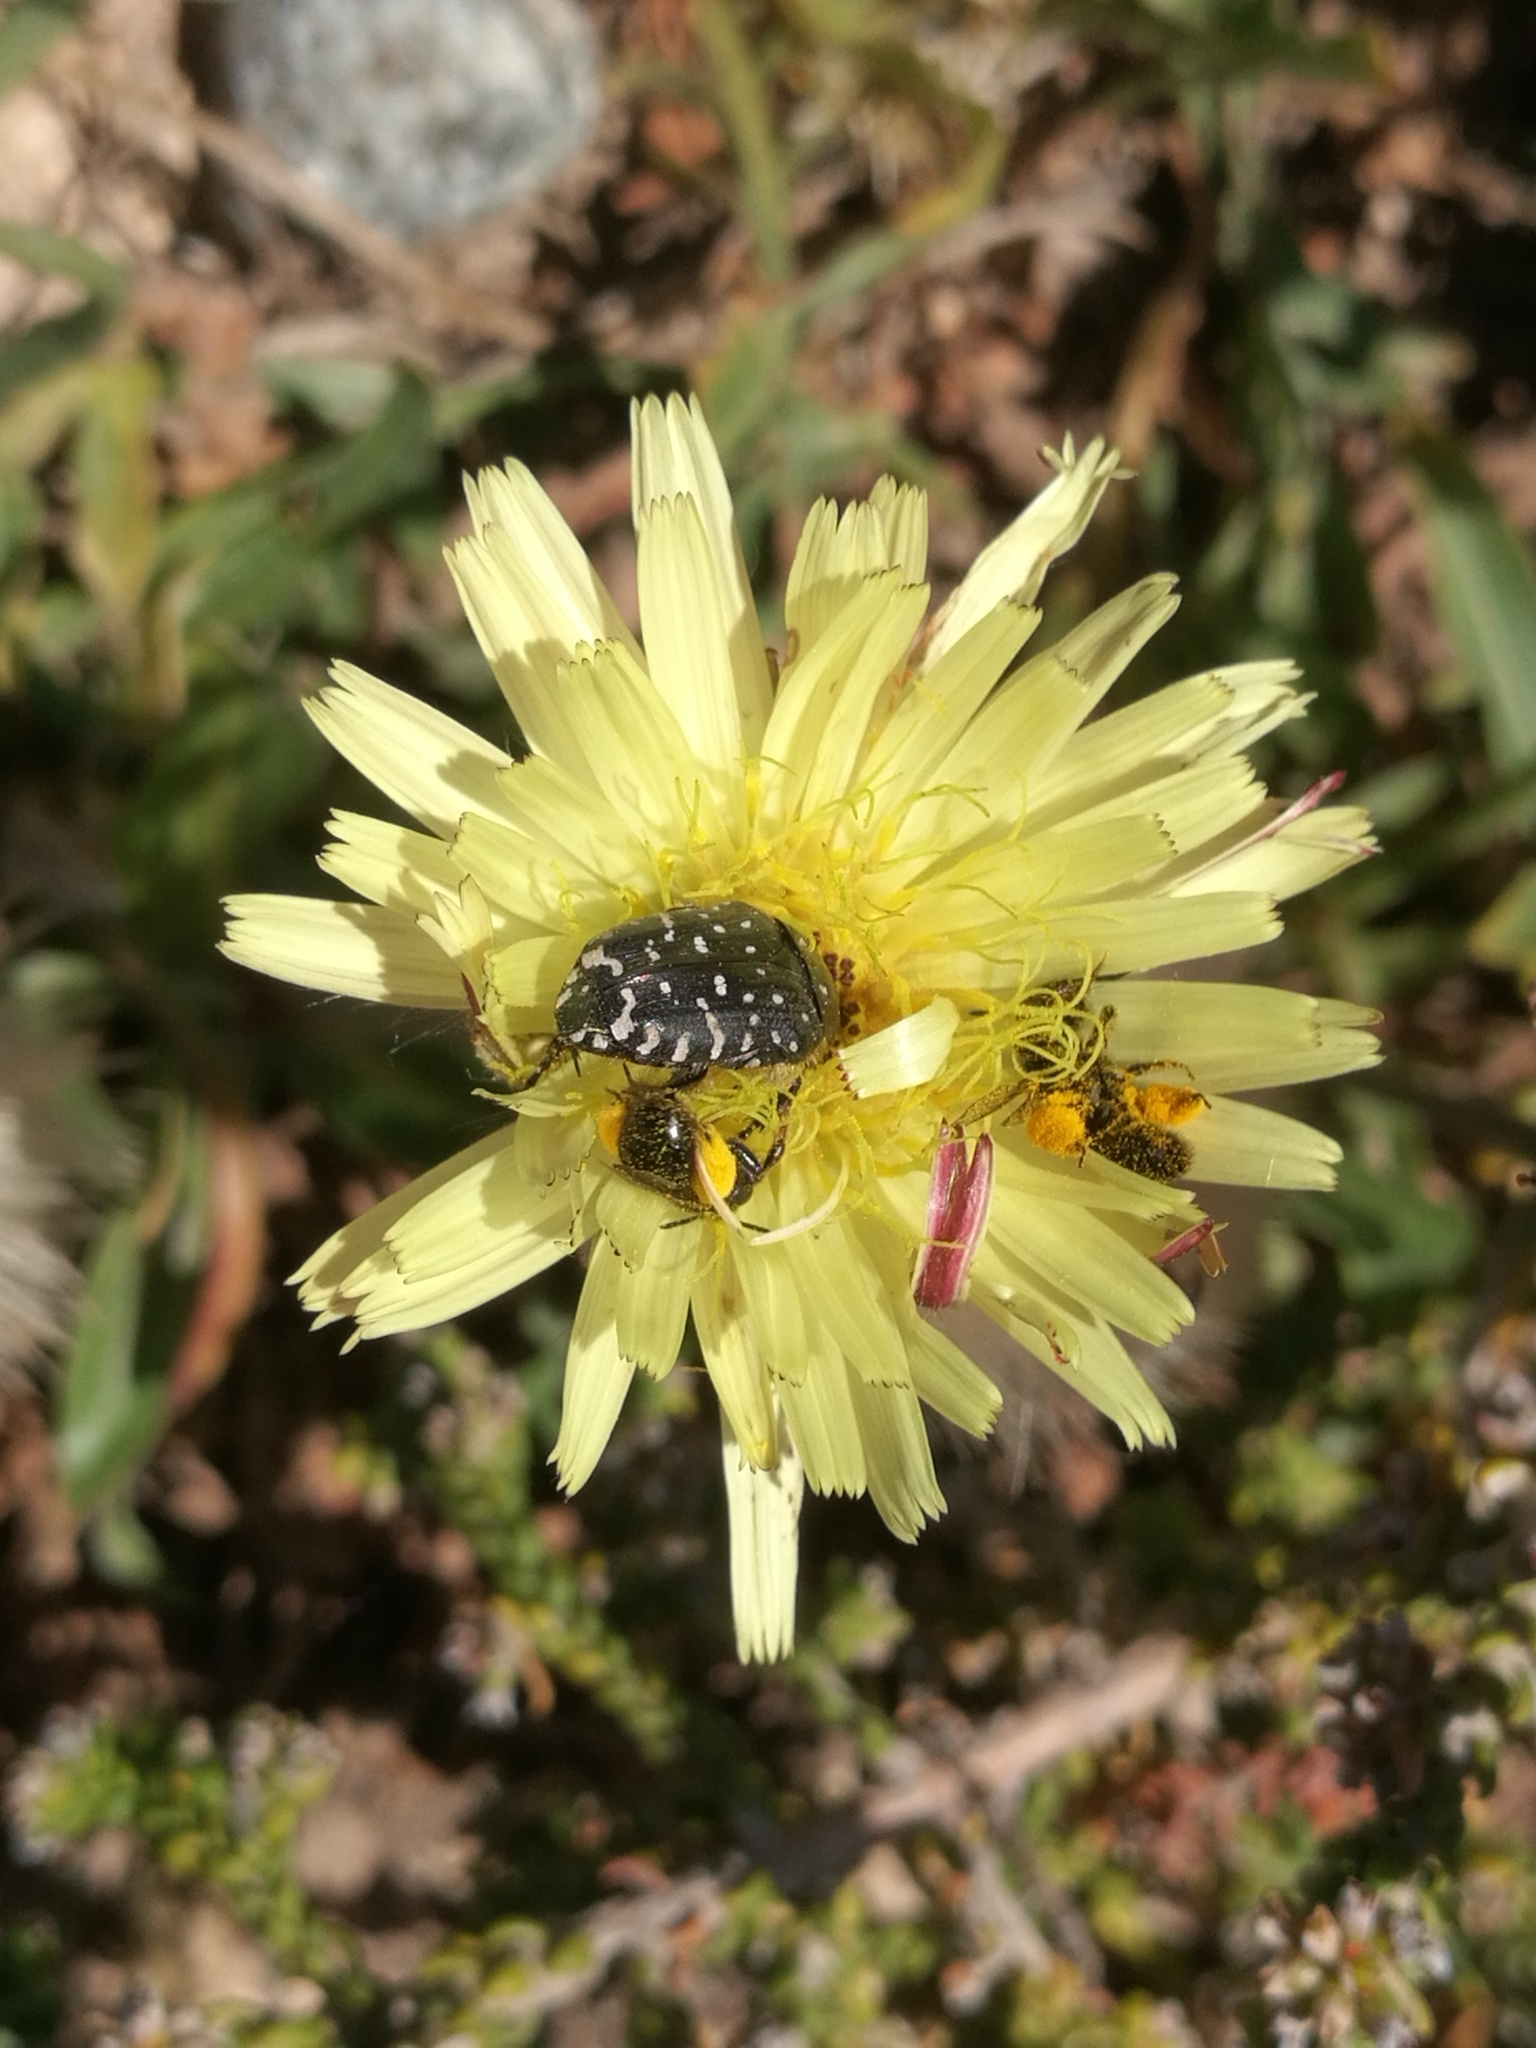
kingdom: Animalia
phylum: Arthropoda
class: Insecta
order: Coleoptera
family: Scarabaeidae
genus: Oxythyrea
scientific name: Oxythyrea funesta
